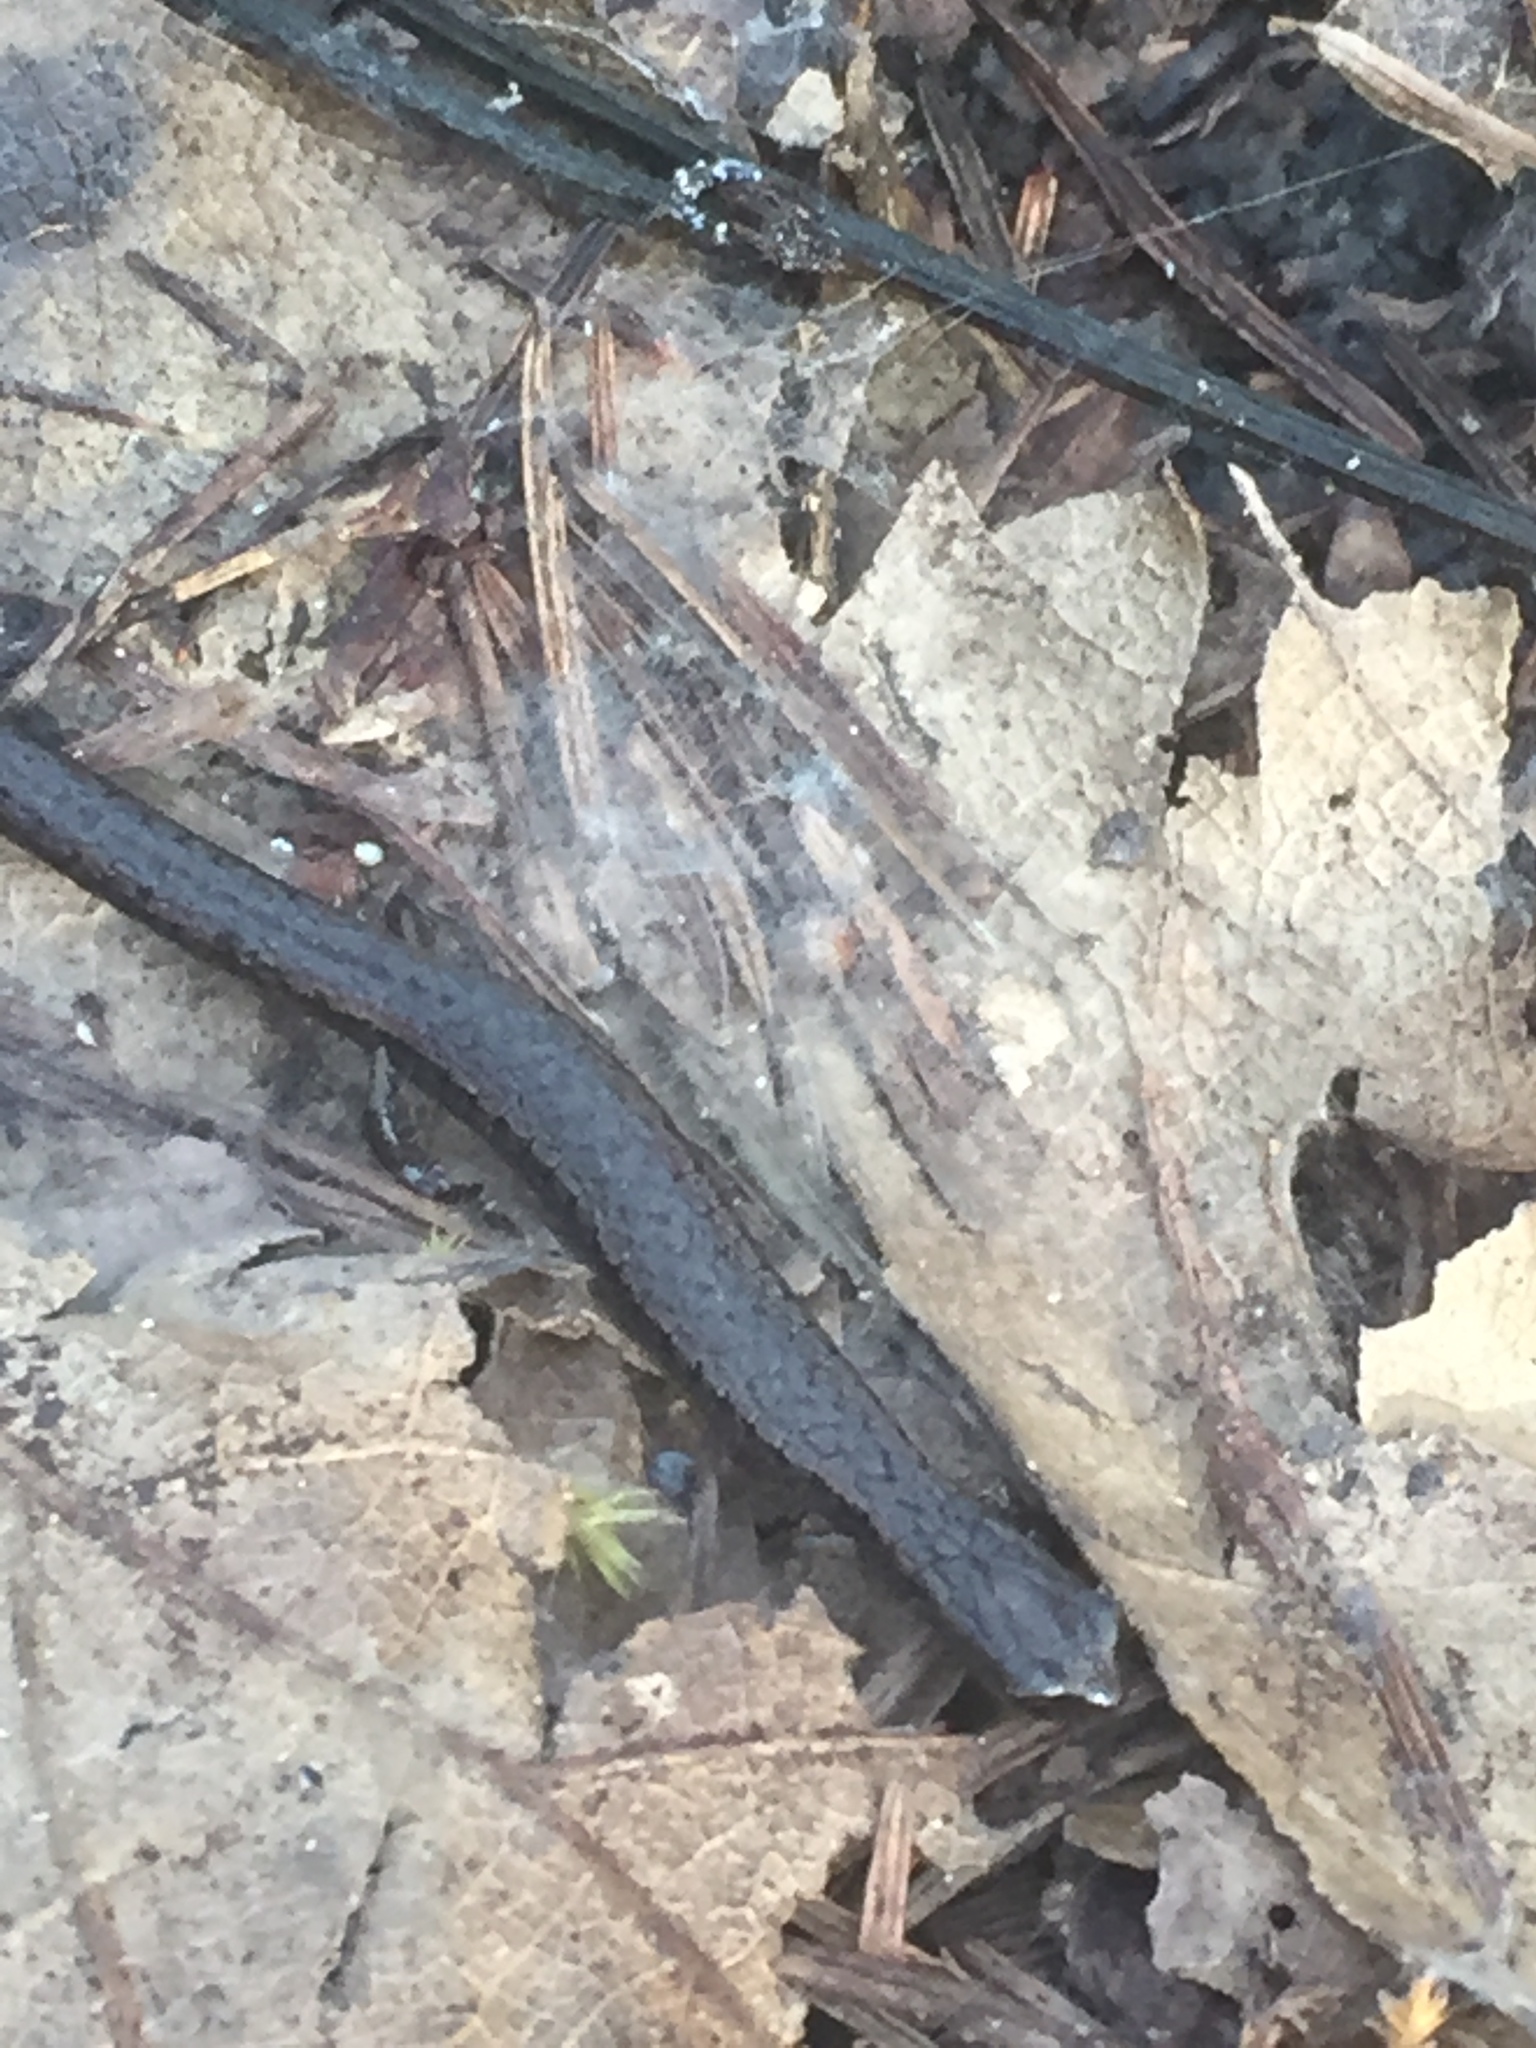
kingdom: Animalia
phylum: Chordata
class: Amphibia
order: Caudata
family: Plethodontidae
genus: Batrachoseps
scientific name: Batrachoseps attenuatus
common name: California slender salamander
